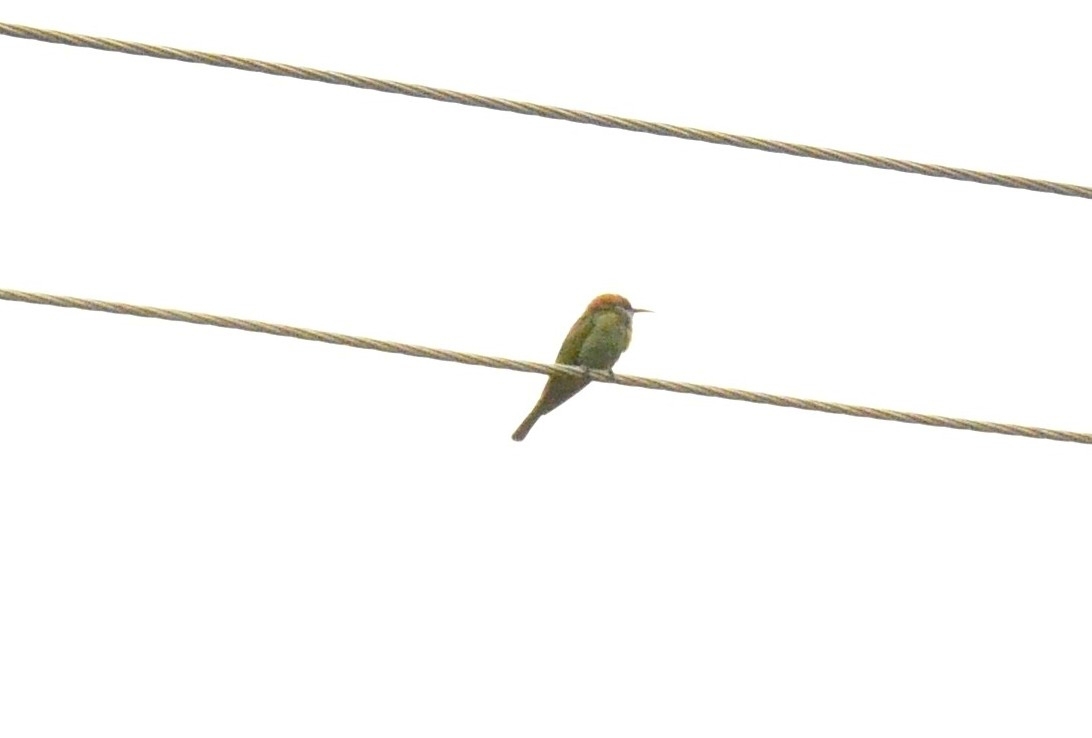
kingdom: Animalia
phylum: Chordata
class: Aves
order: Coraciiformes
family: Meropidae
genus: Merops
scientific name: Merops orientalis
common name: Green bee-eater
